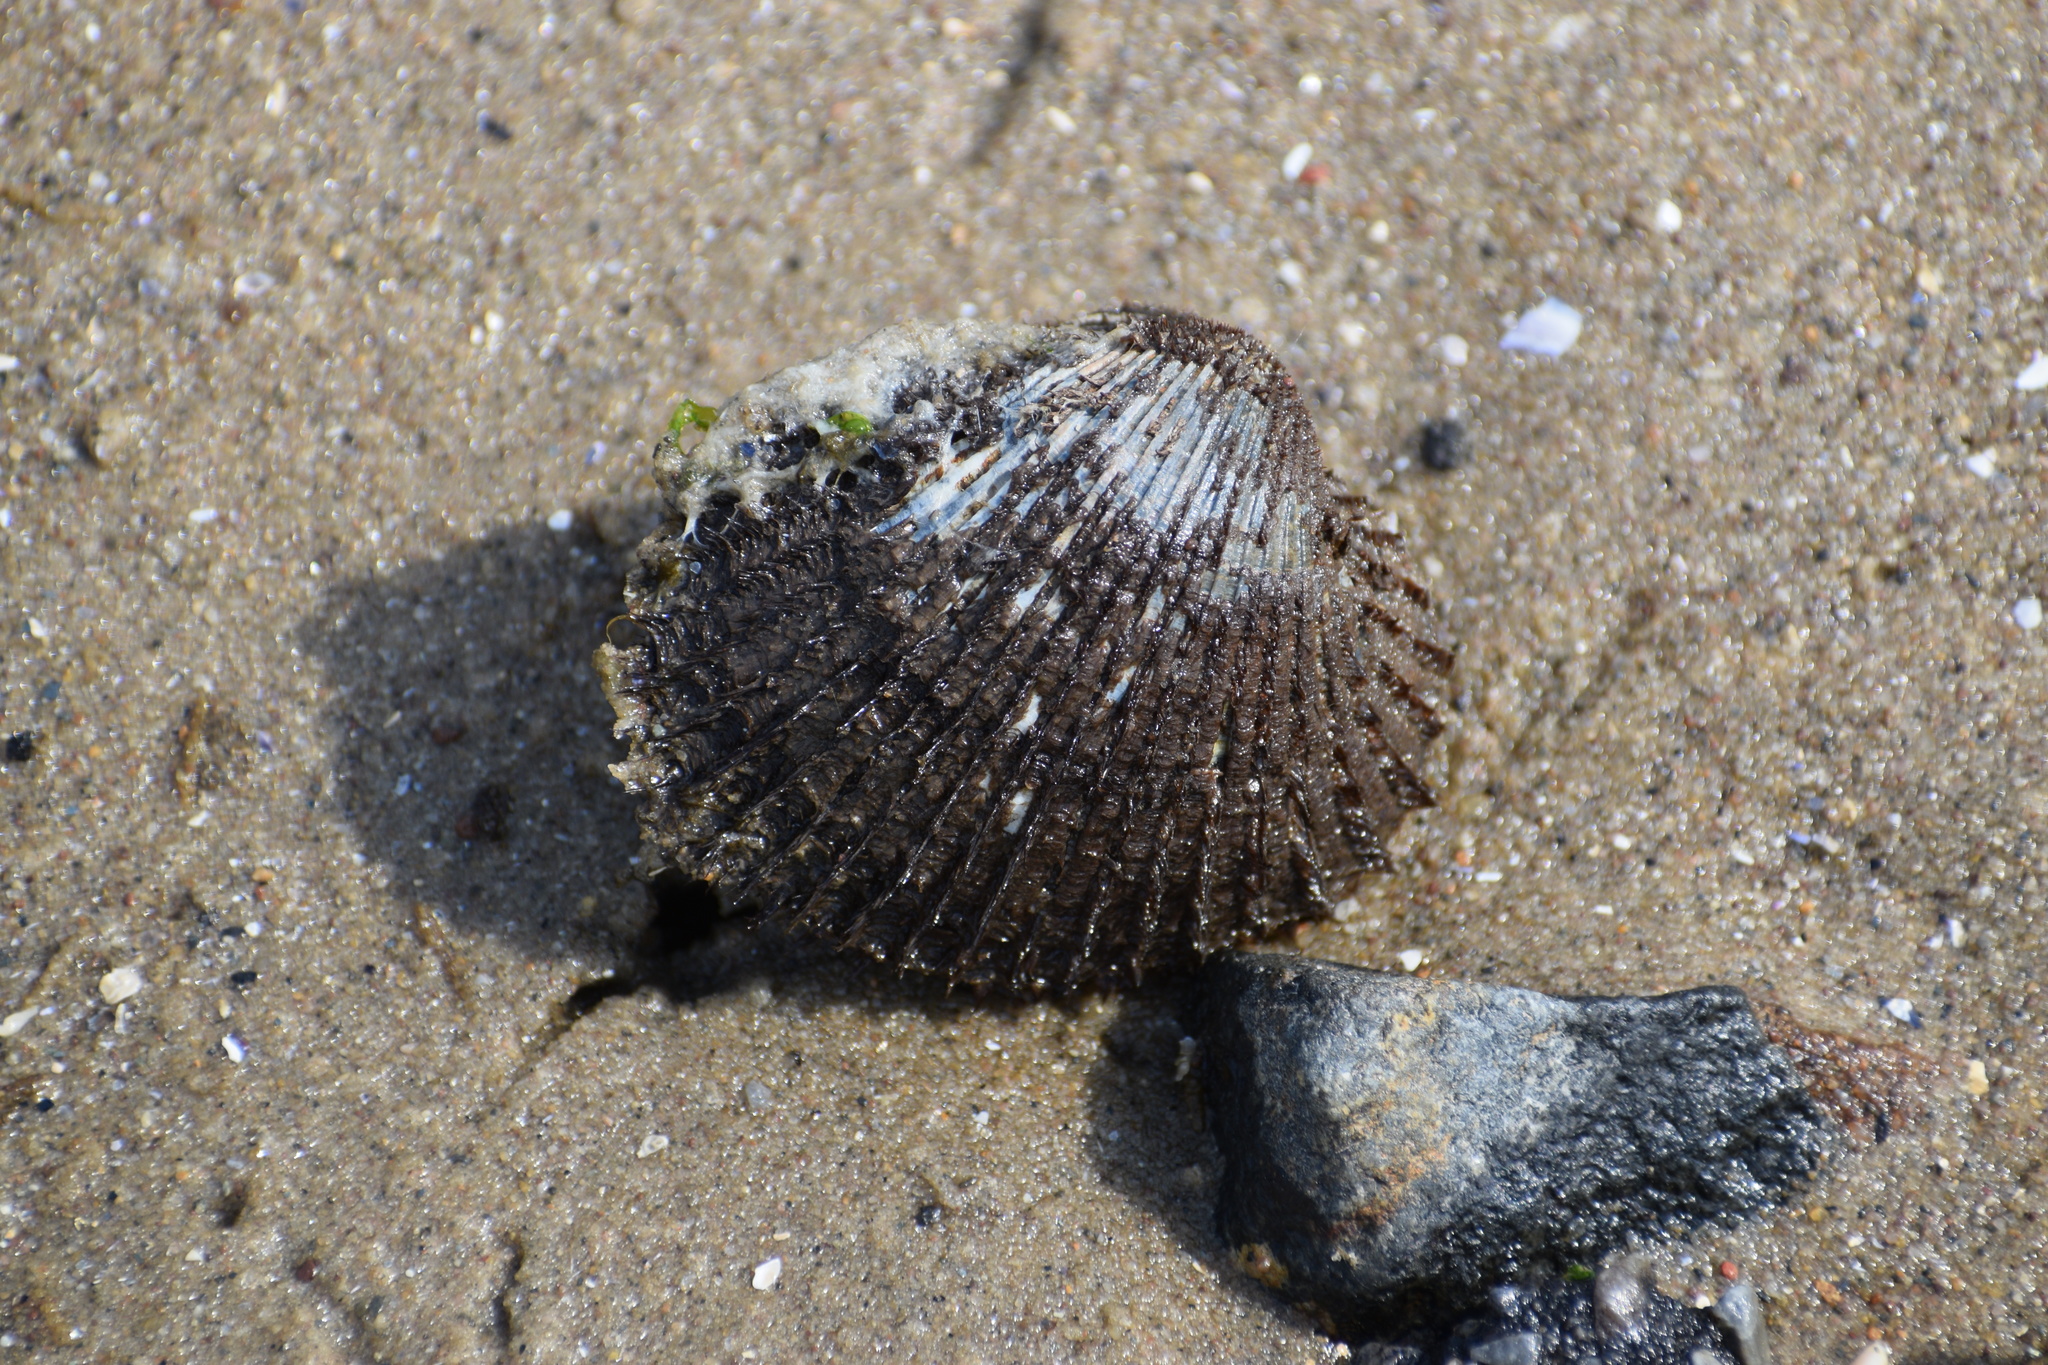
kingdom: Animalia
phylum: Mollusca
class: Bivalvia
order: Arcida
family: Arcidae
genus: Lunarca
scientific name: Lunarca ovalis
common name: Blood ark
